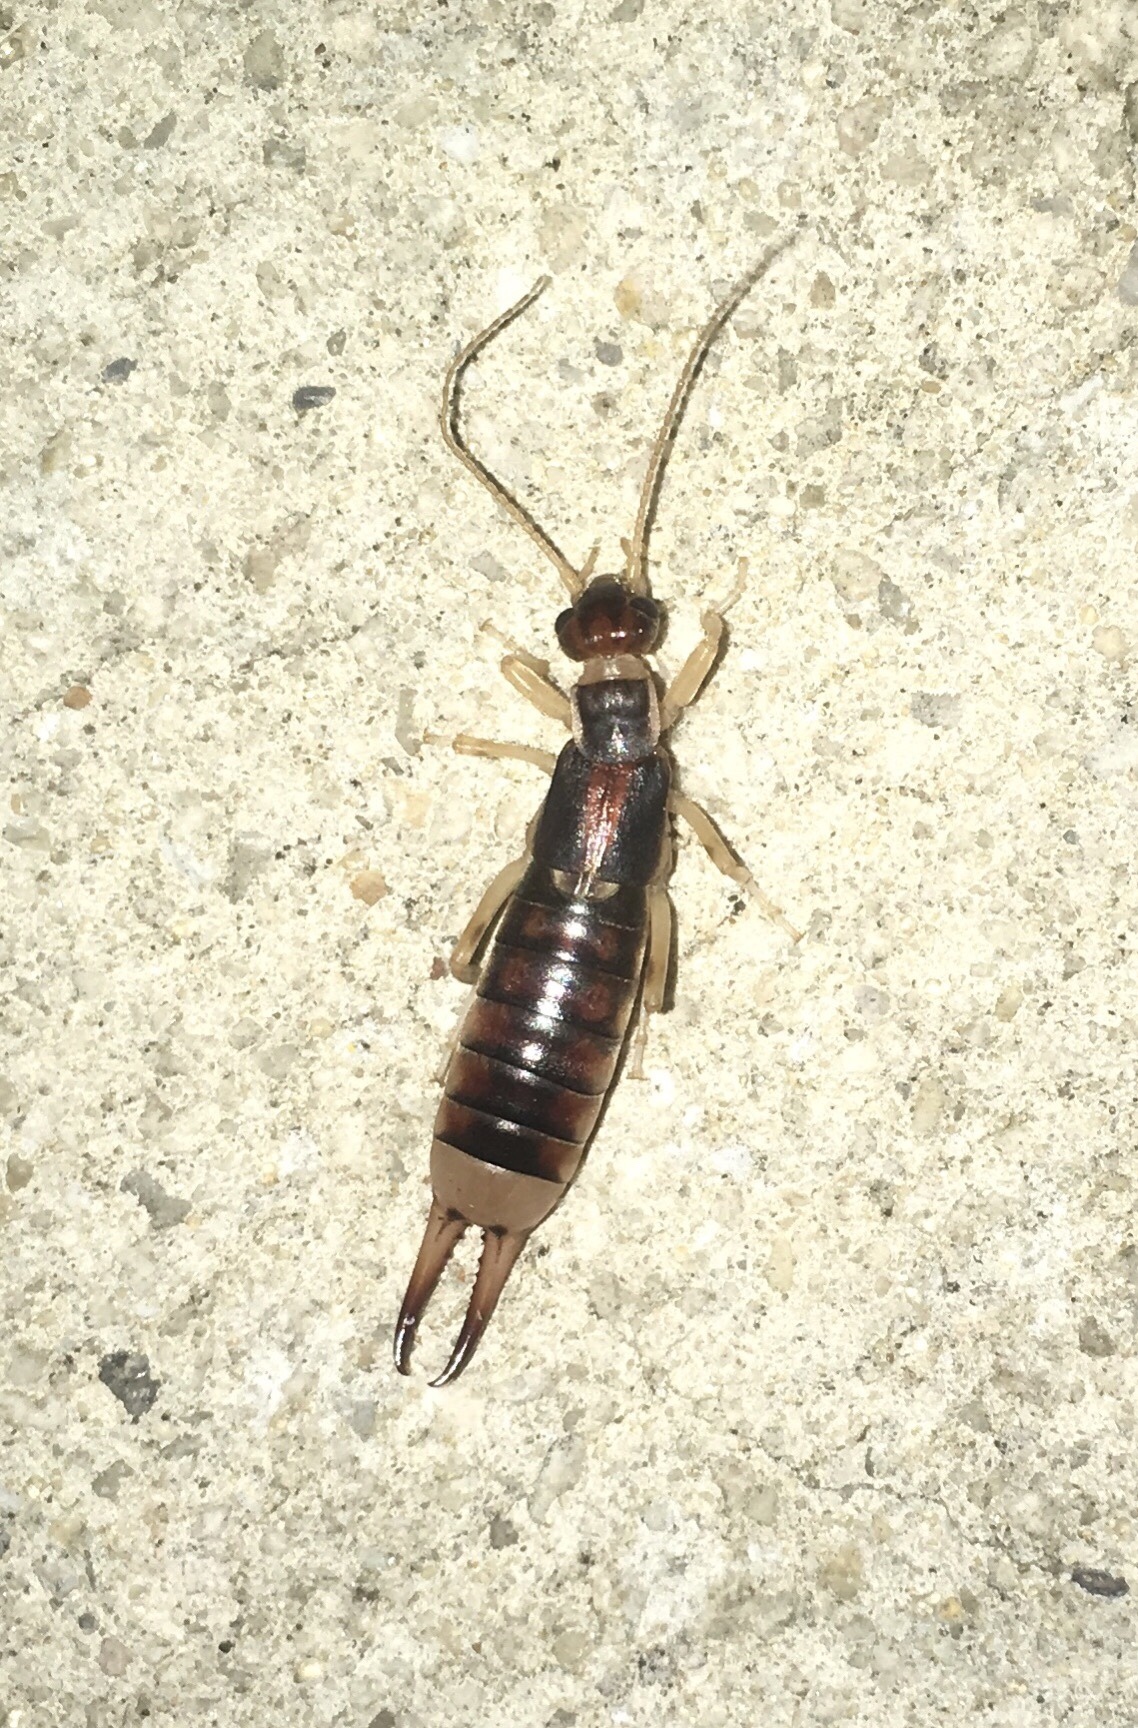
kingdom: Animalia
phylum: Arthropoda
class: Insecta
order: Dermaptera
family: Labiduridae
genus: Labidura
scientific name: Labidura riparia
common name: Striped earwig
